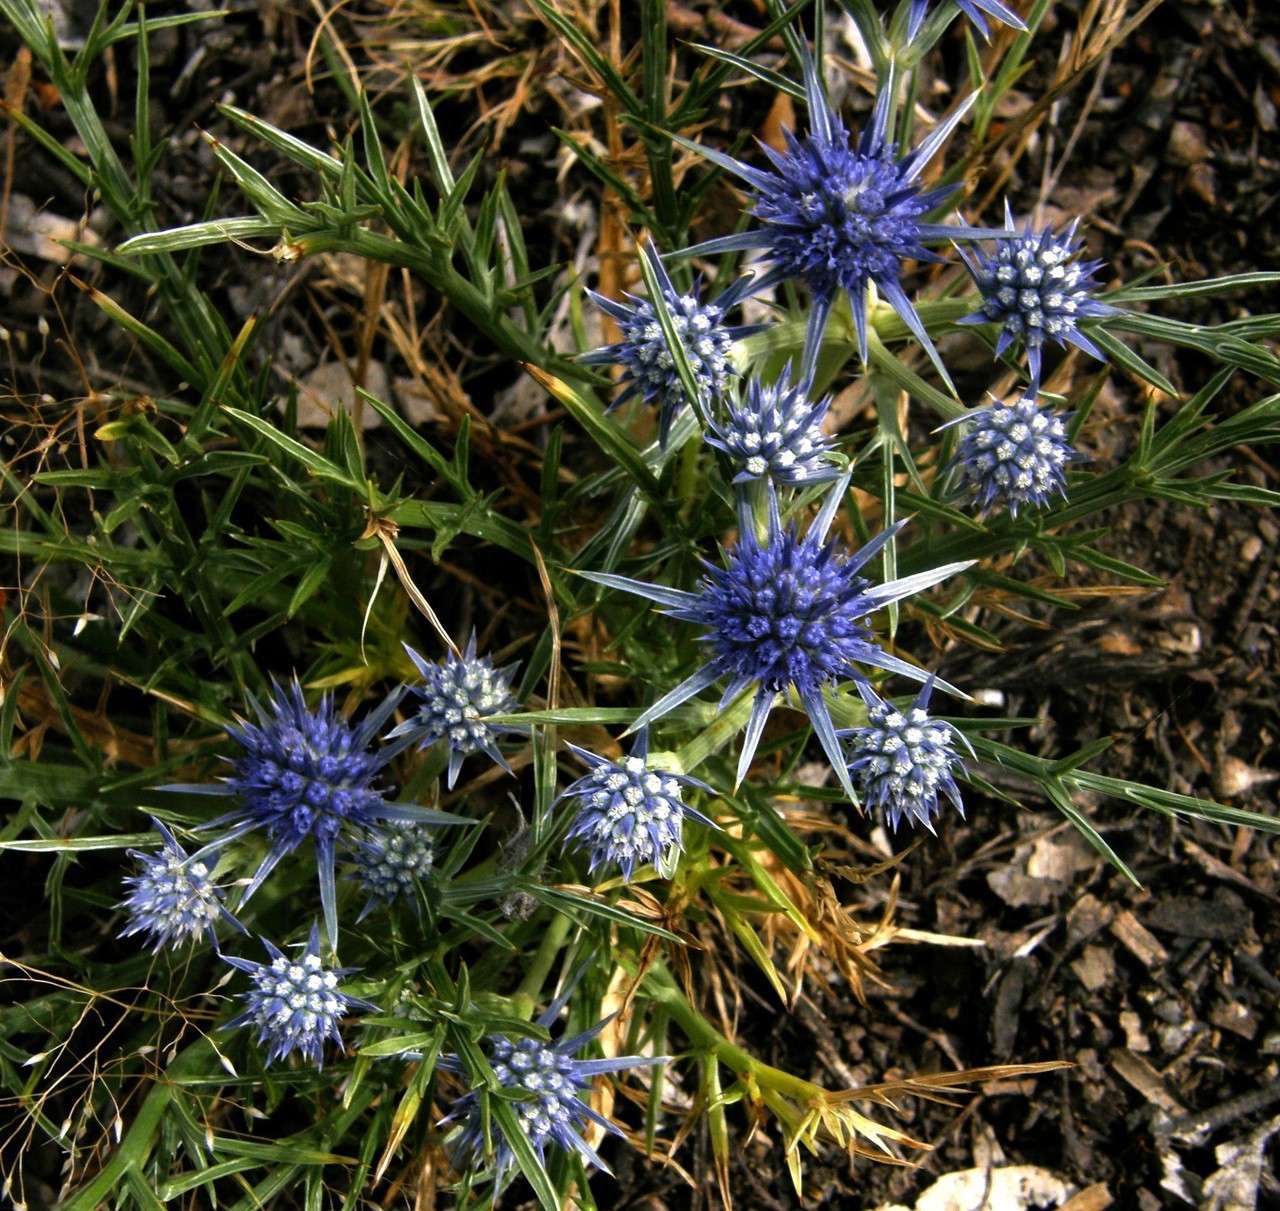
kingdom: Plantae
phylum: Tracheophyta
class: Magnoliopsida
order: Apiales
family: Apiaceae
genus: Eryngium
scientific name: Eryngium ovinum
